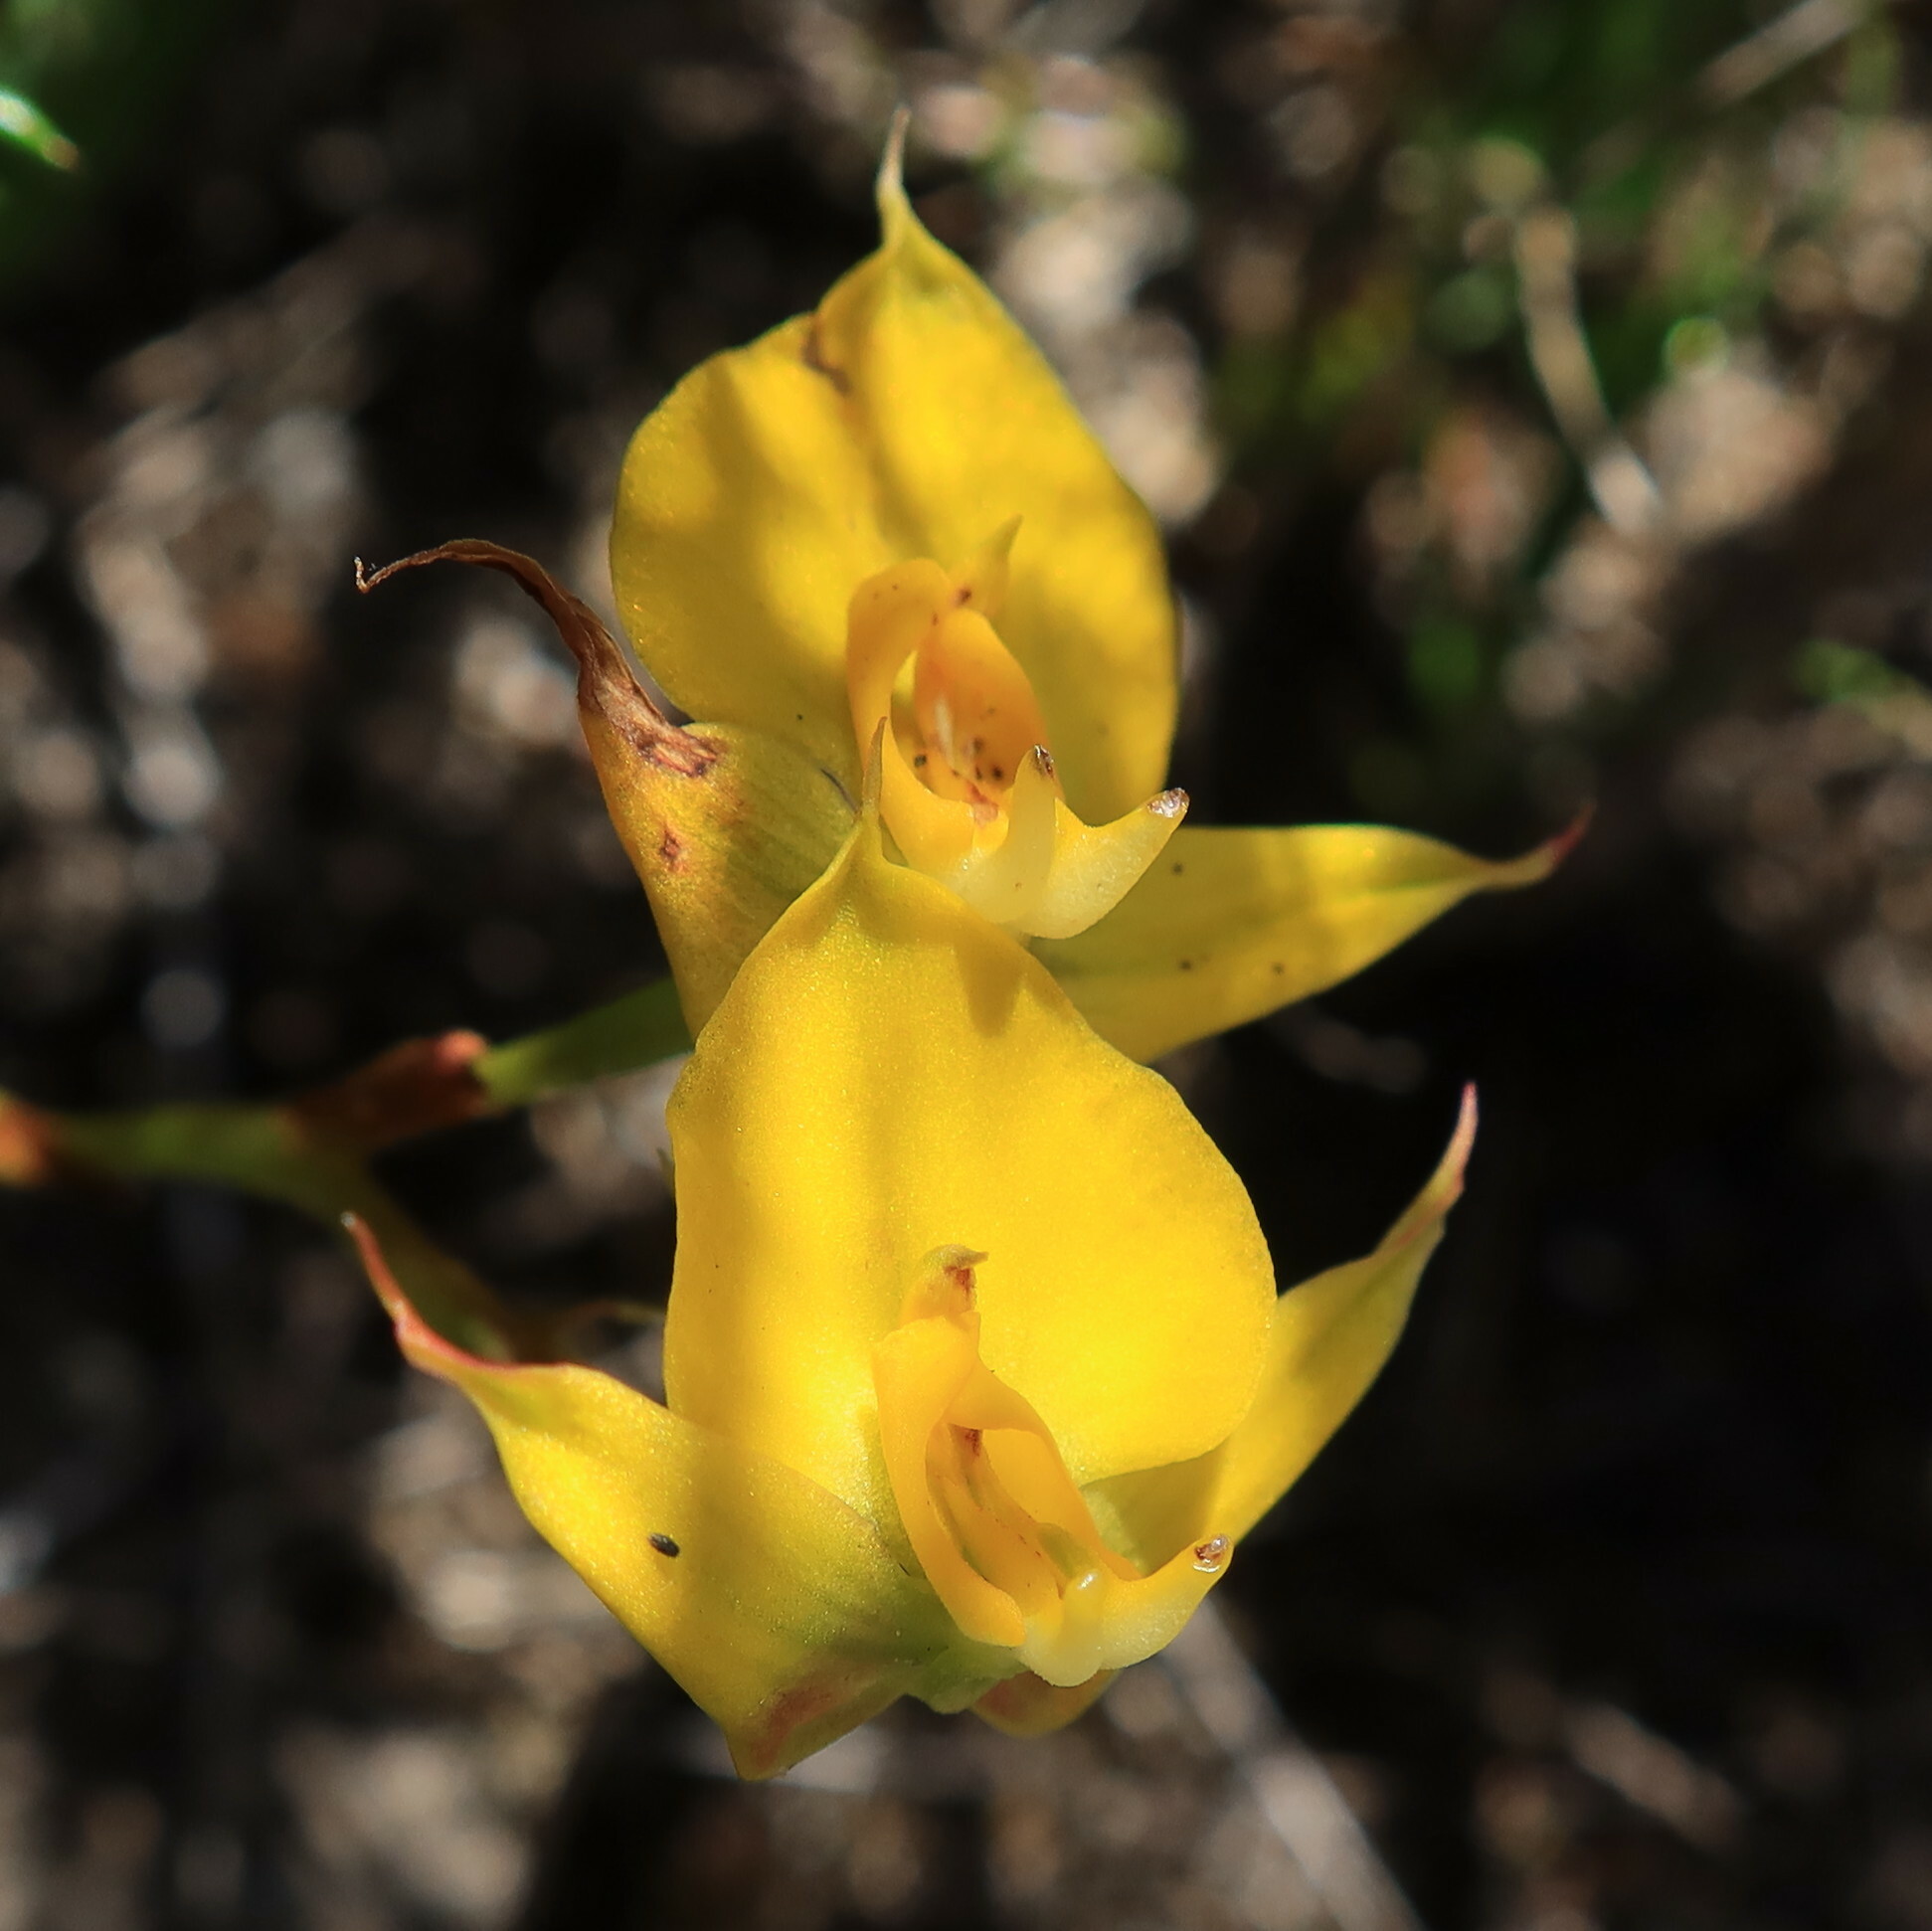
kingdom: Plantae
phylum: Tracheophyta
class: Liliopsida
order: Asparagales
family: Orchidaceae
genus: Disa
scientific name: Disa tenuifolia
